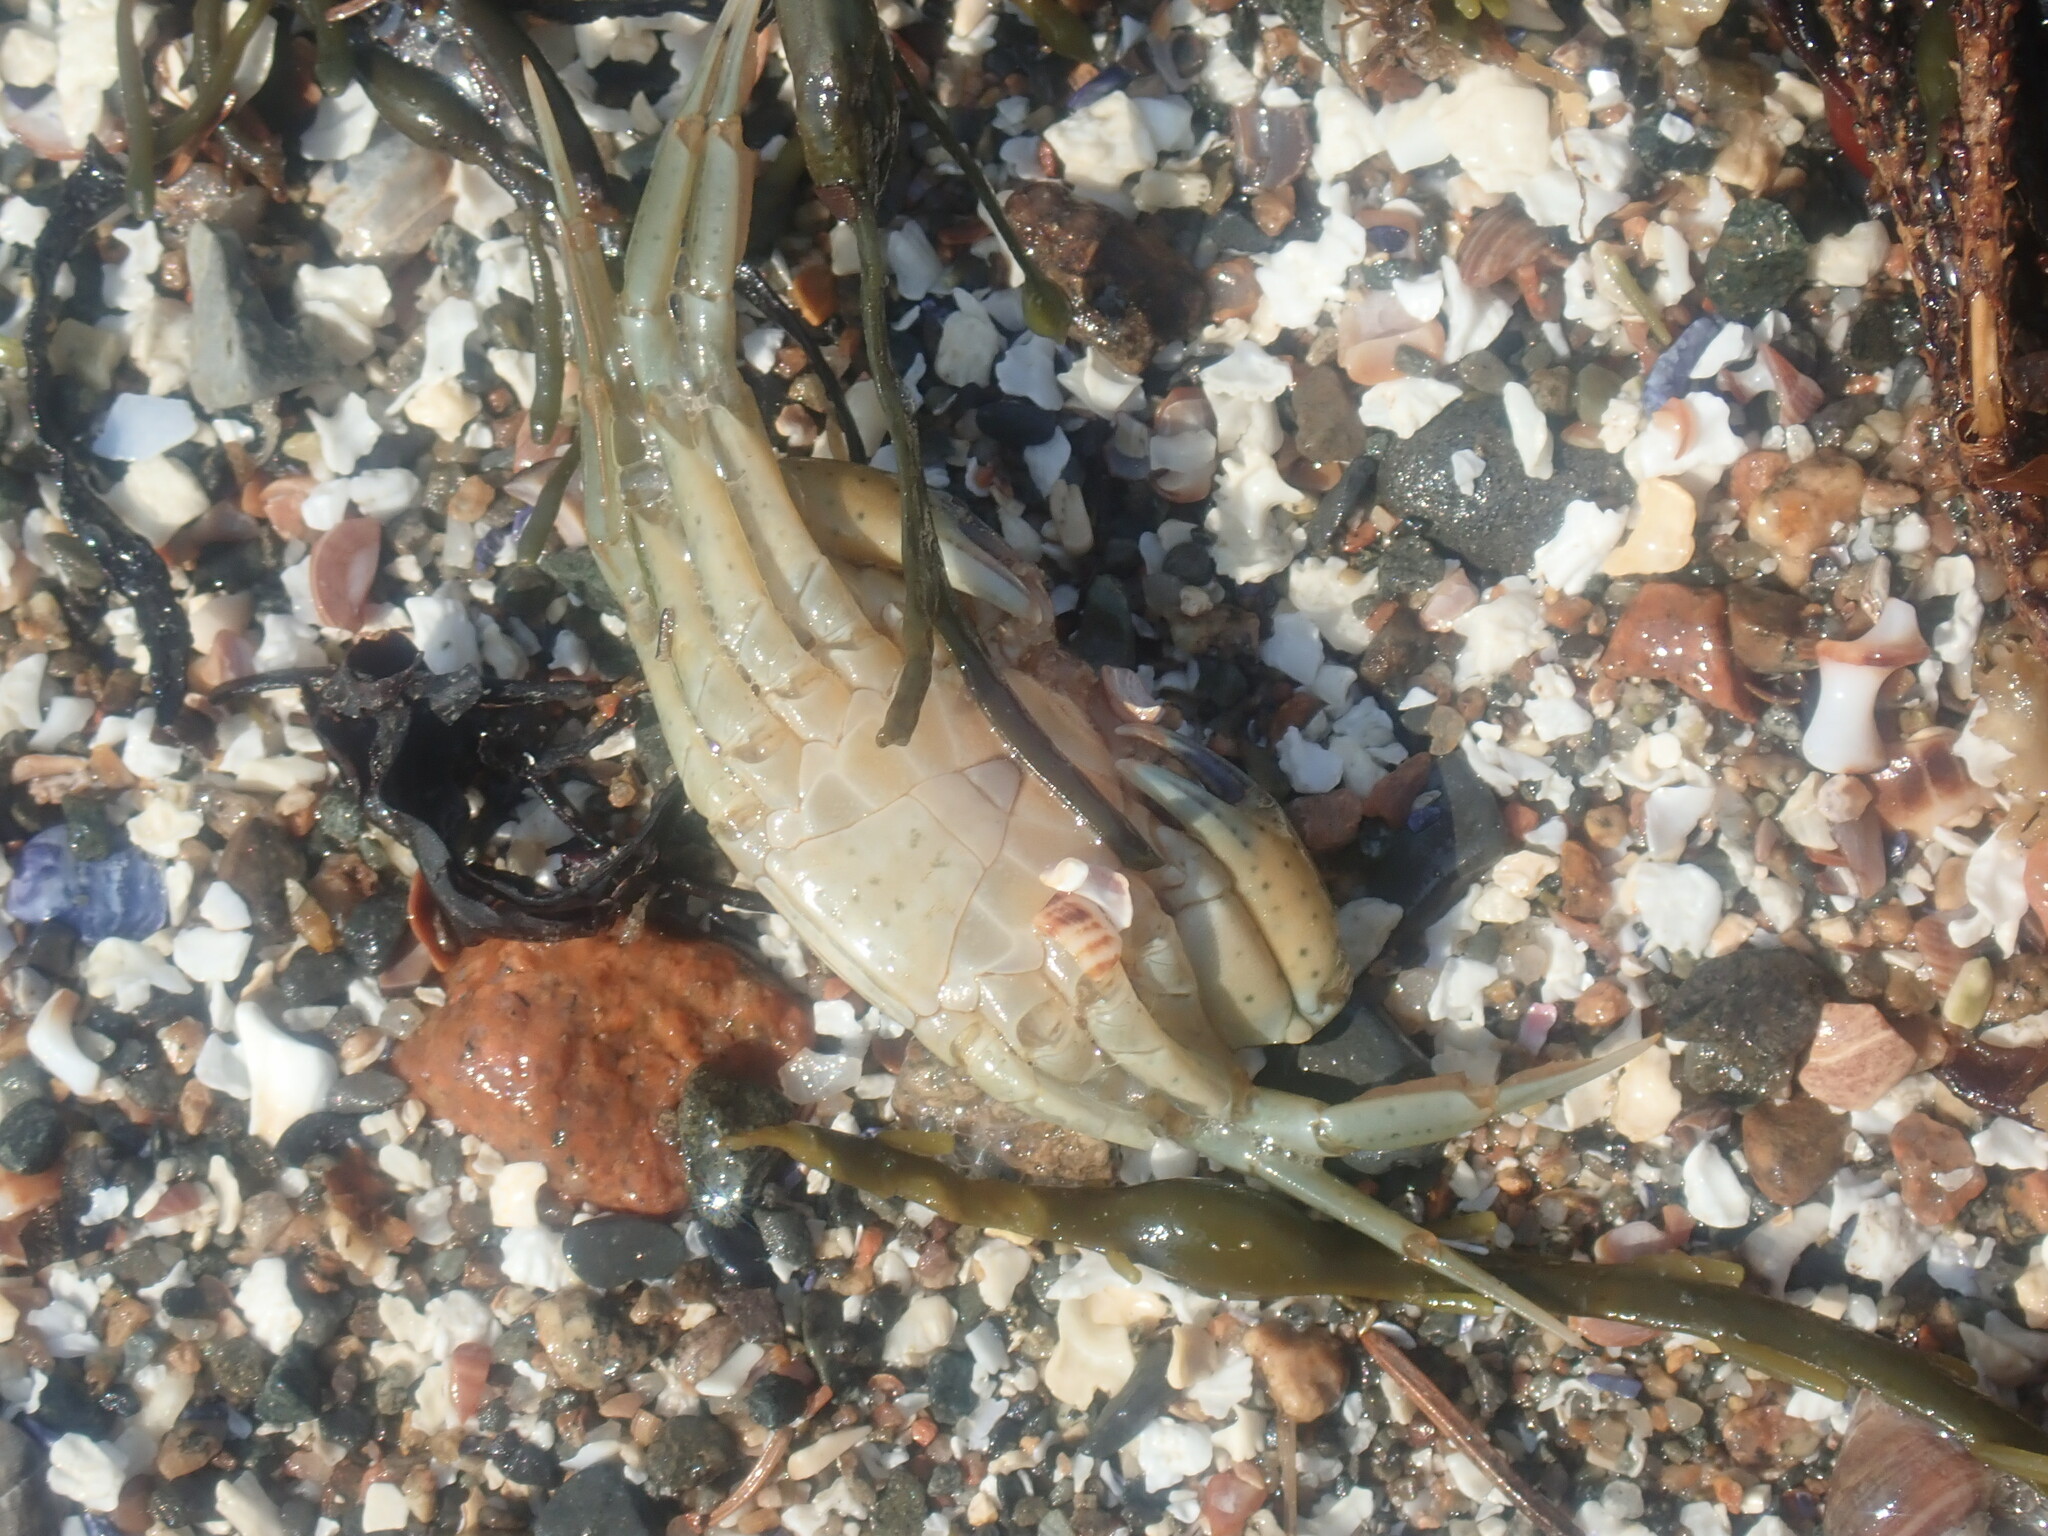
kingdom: Animalia
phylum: Arthropoda
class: Malacostraca
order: Decapoda
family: Carcinidae
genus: Carcinus
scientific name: Carcinus maenas
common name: European green crab
